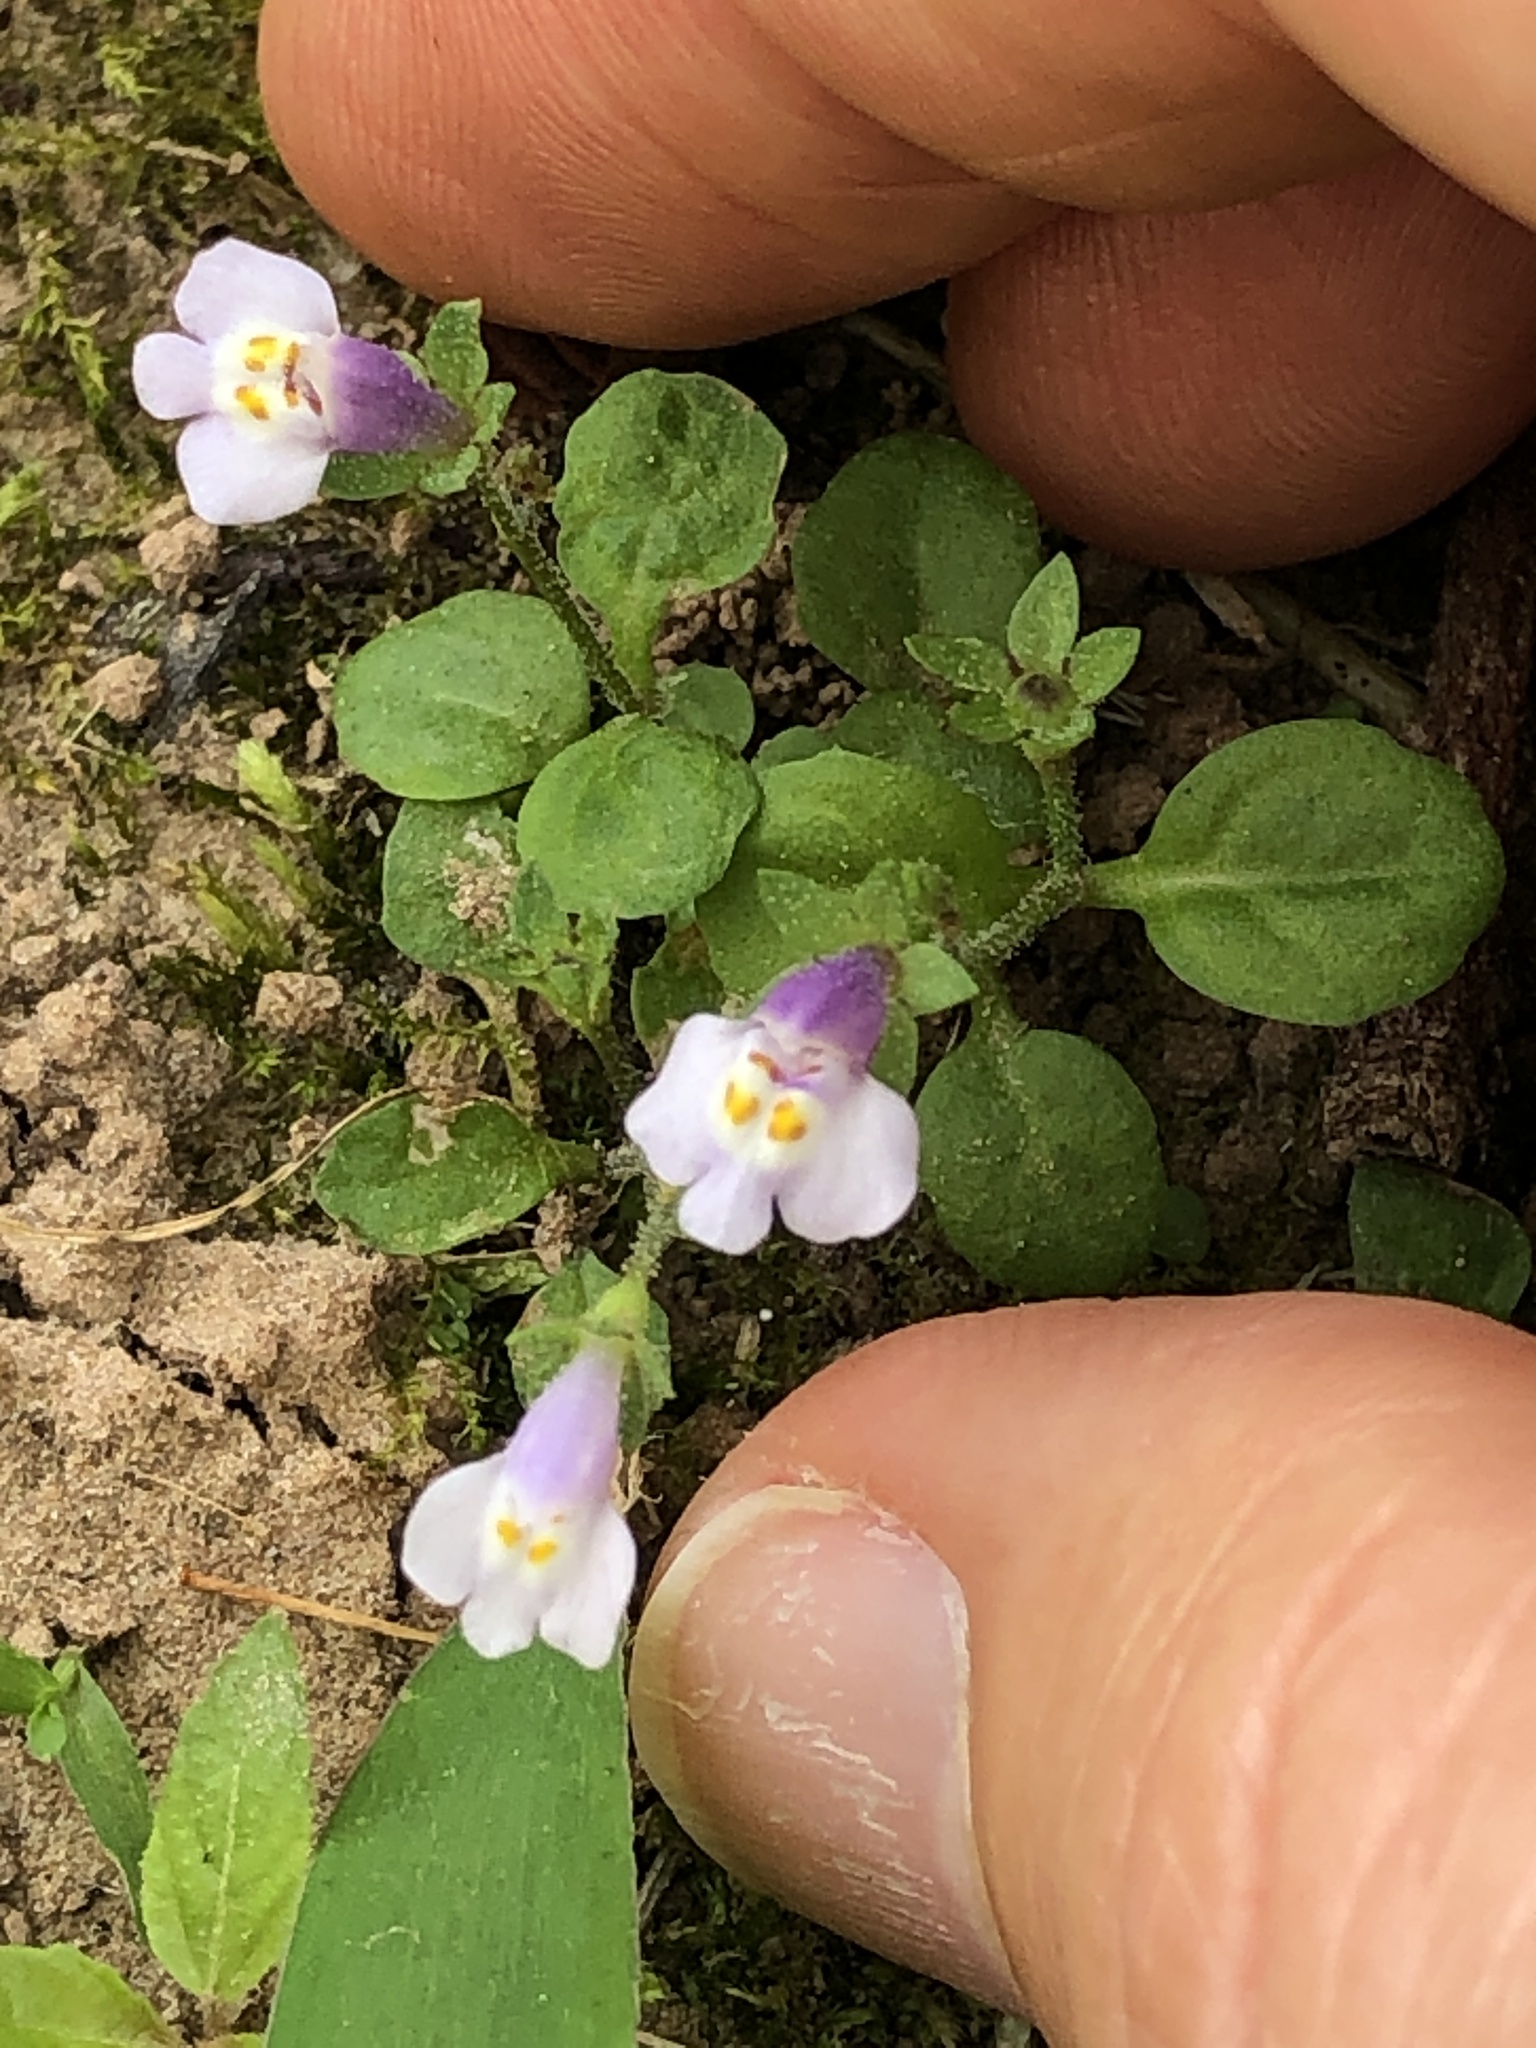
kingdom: Plantae
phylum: Tracheophyta
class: Magnoliopsida
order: Lamiales
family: Mazaceae
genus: Mazus
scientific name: Mazus pumilus
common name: Japanese mazus
